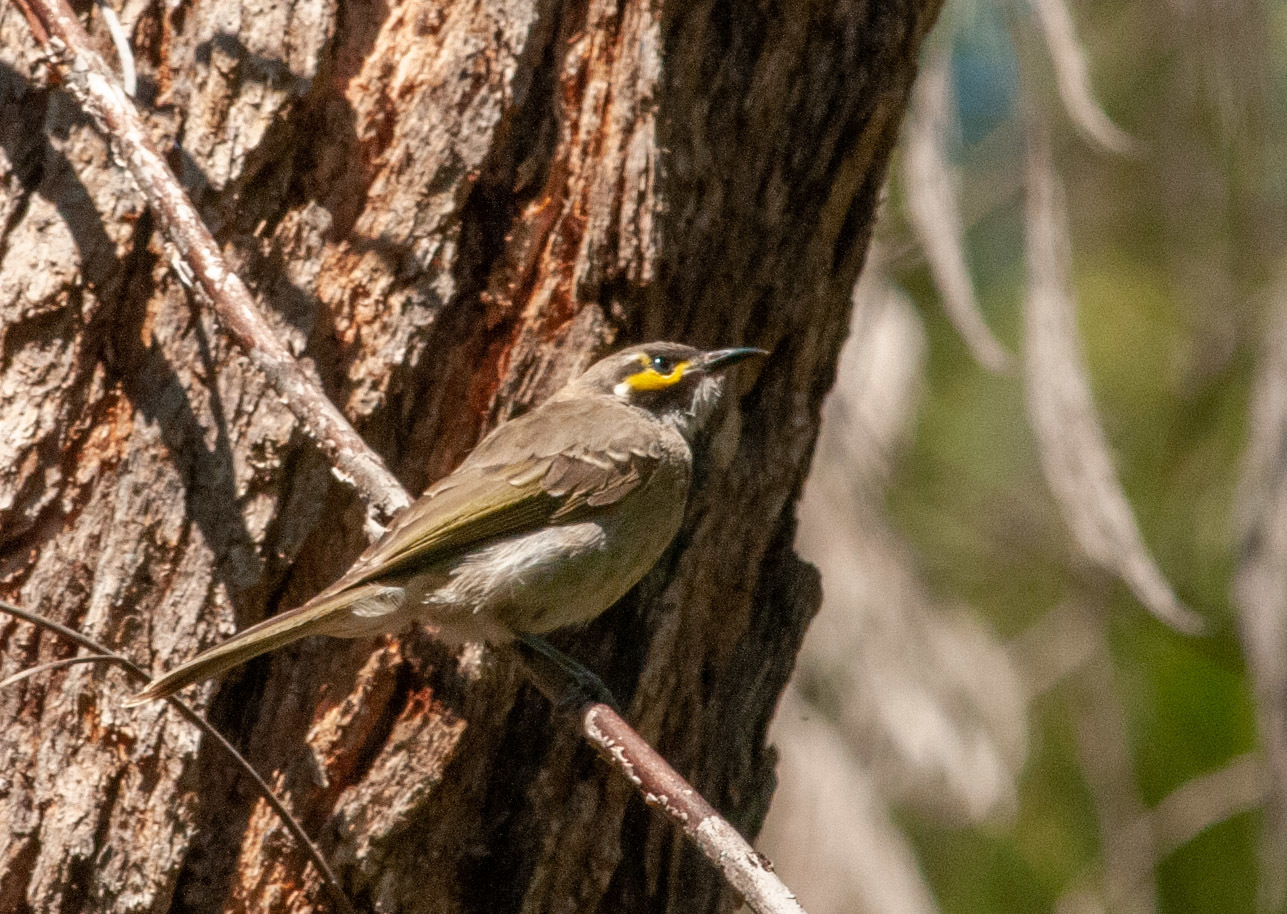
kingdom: Animalia
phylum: Chordata
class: Aves
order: Passeriformes
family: Meliphagidae
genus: Caligavis
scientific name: Caligavis chrysops
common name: Yellow-faced honeyeater
